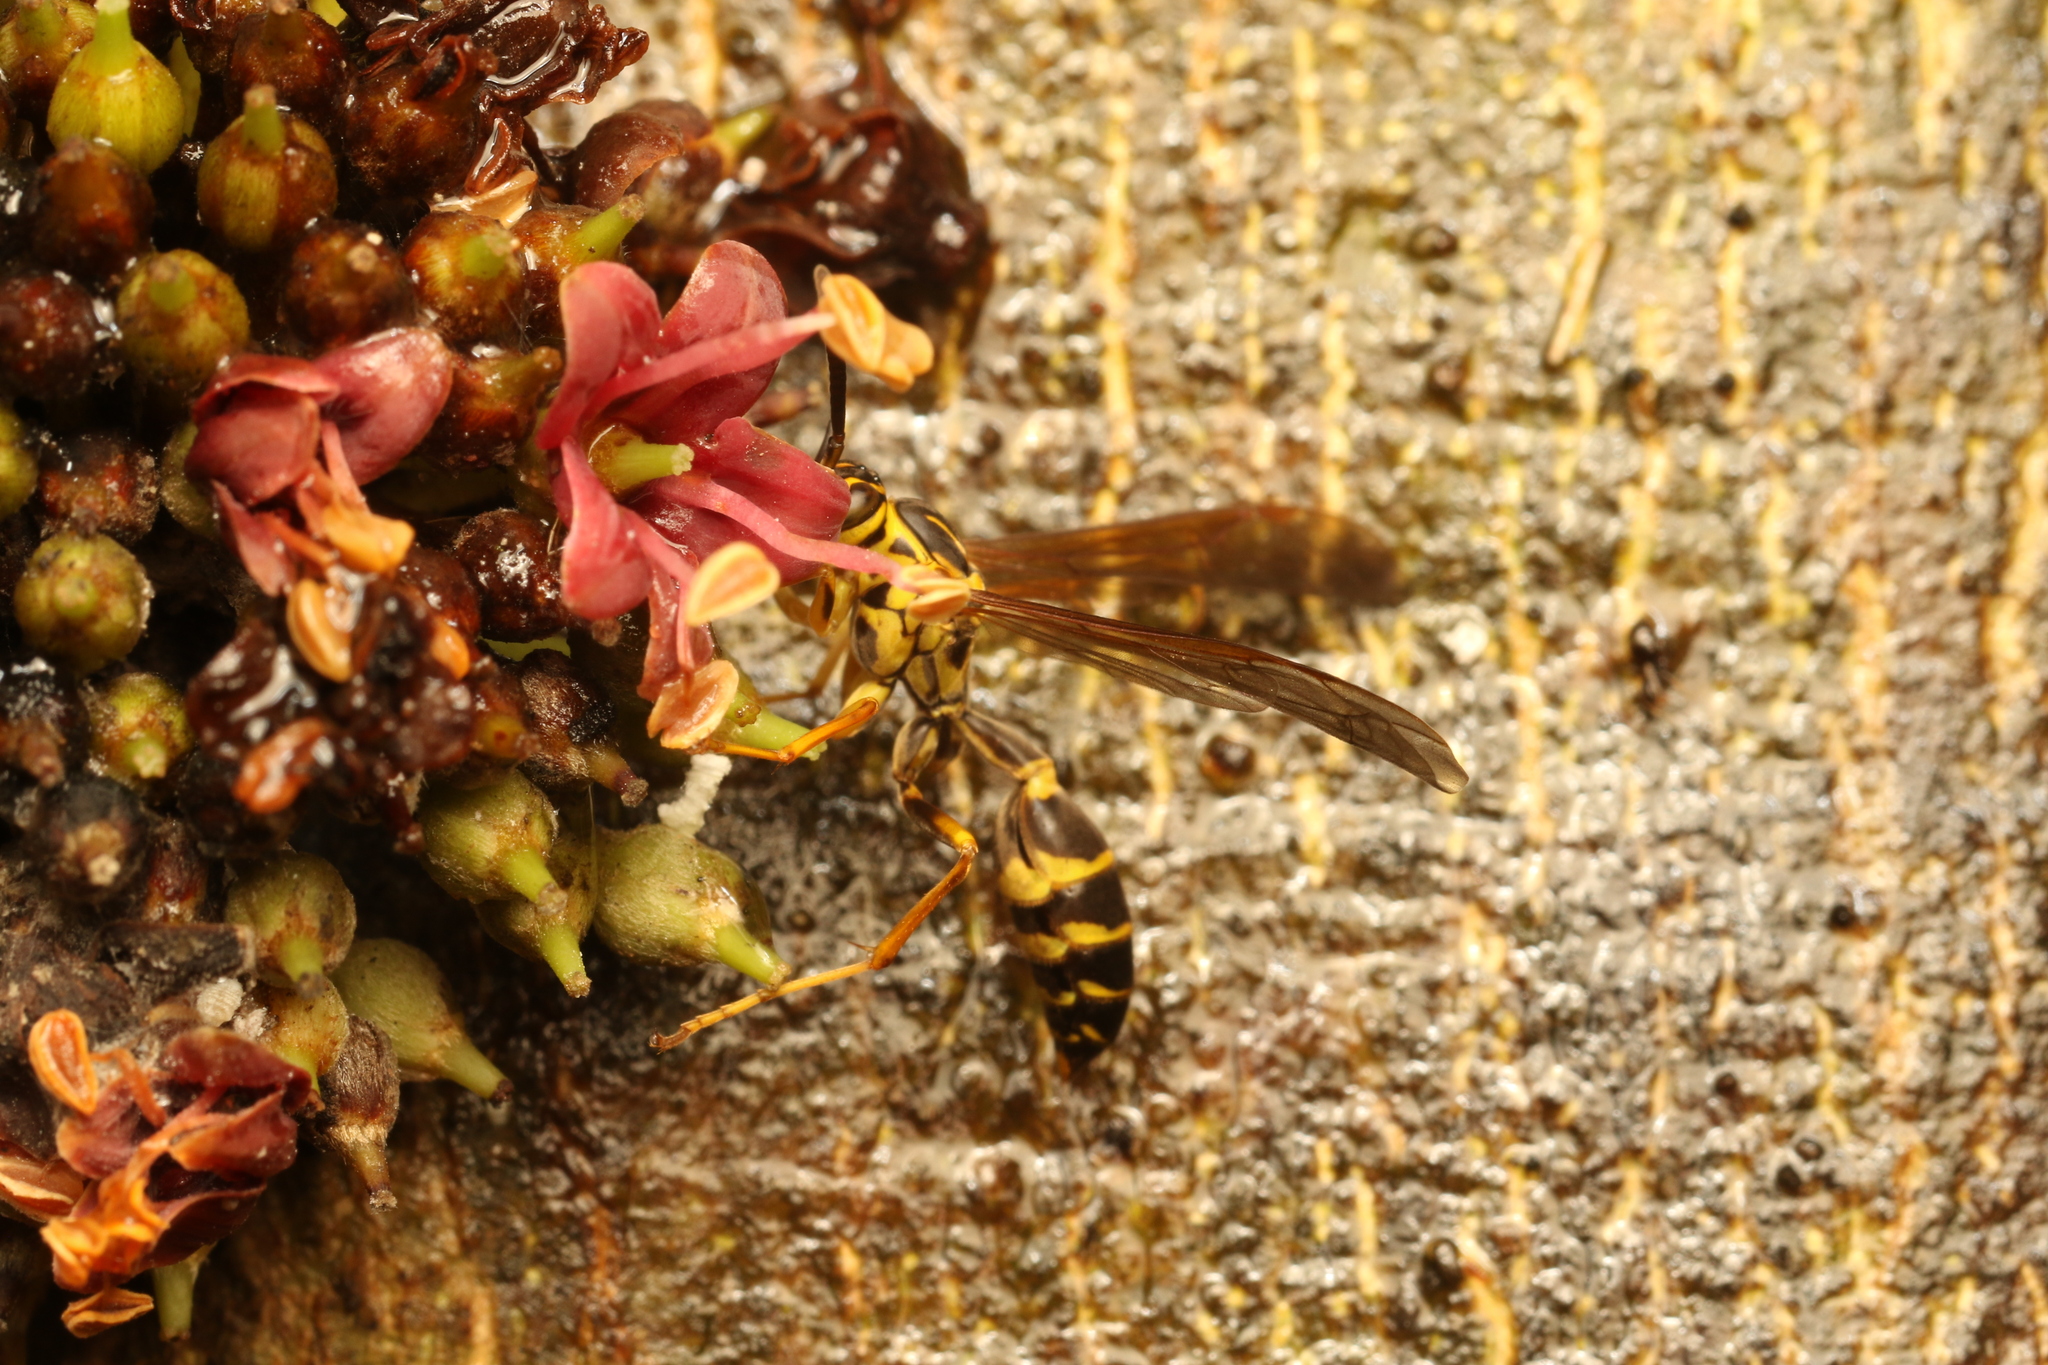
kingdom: Animalia
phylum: Arthropoda
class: Insecta
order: Hymenoptera
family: Vespidae
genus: Agelaia
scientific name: Agelaia multipicta
